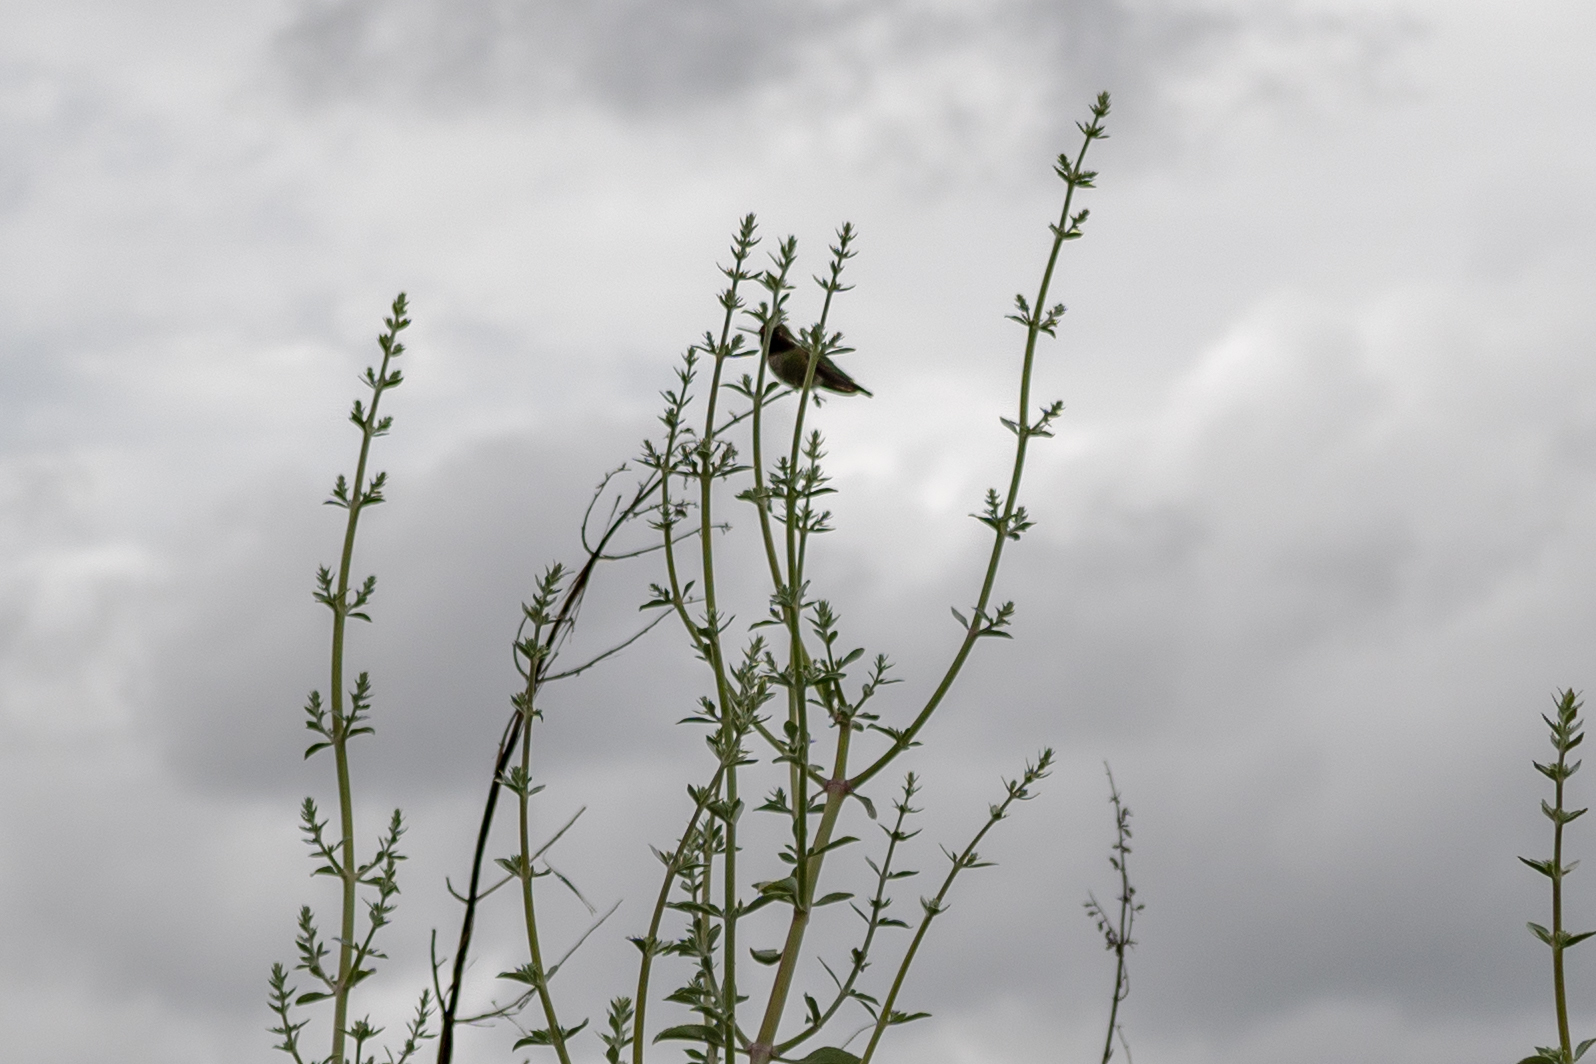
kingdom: Animalia
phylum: Chordata
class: Aves
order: Apodiformes
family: Trochilidae
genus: Calypte
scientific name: Calypte anna
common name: Anna's hummingbird
